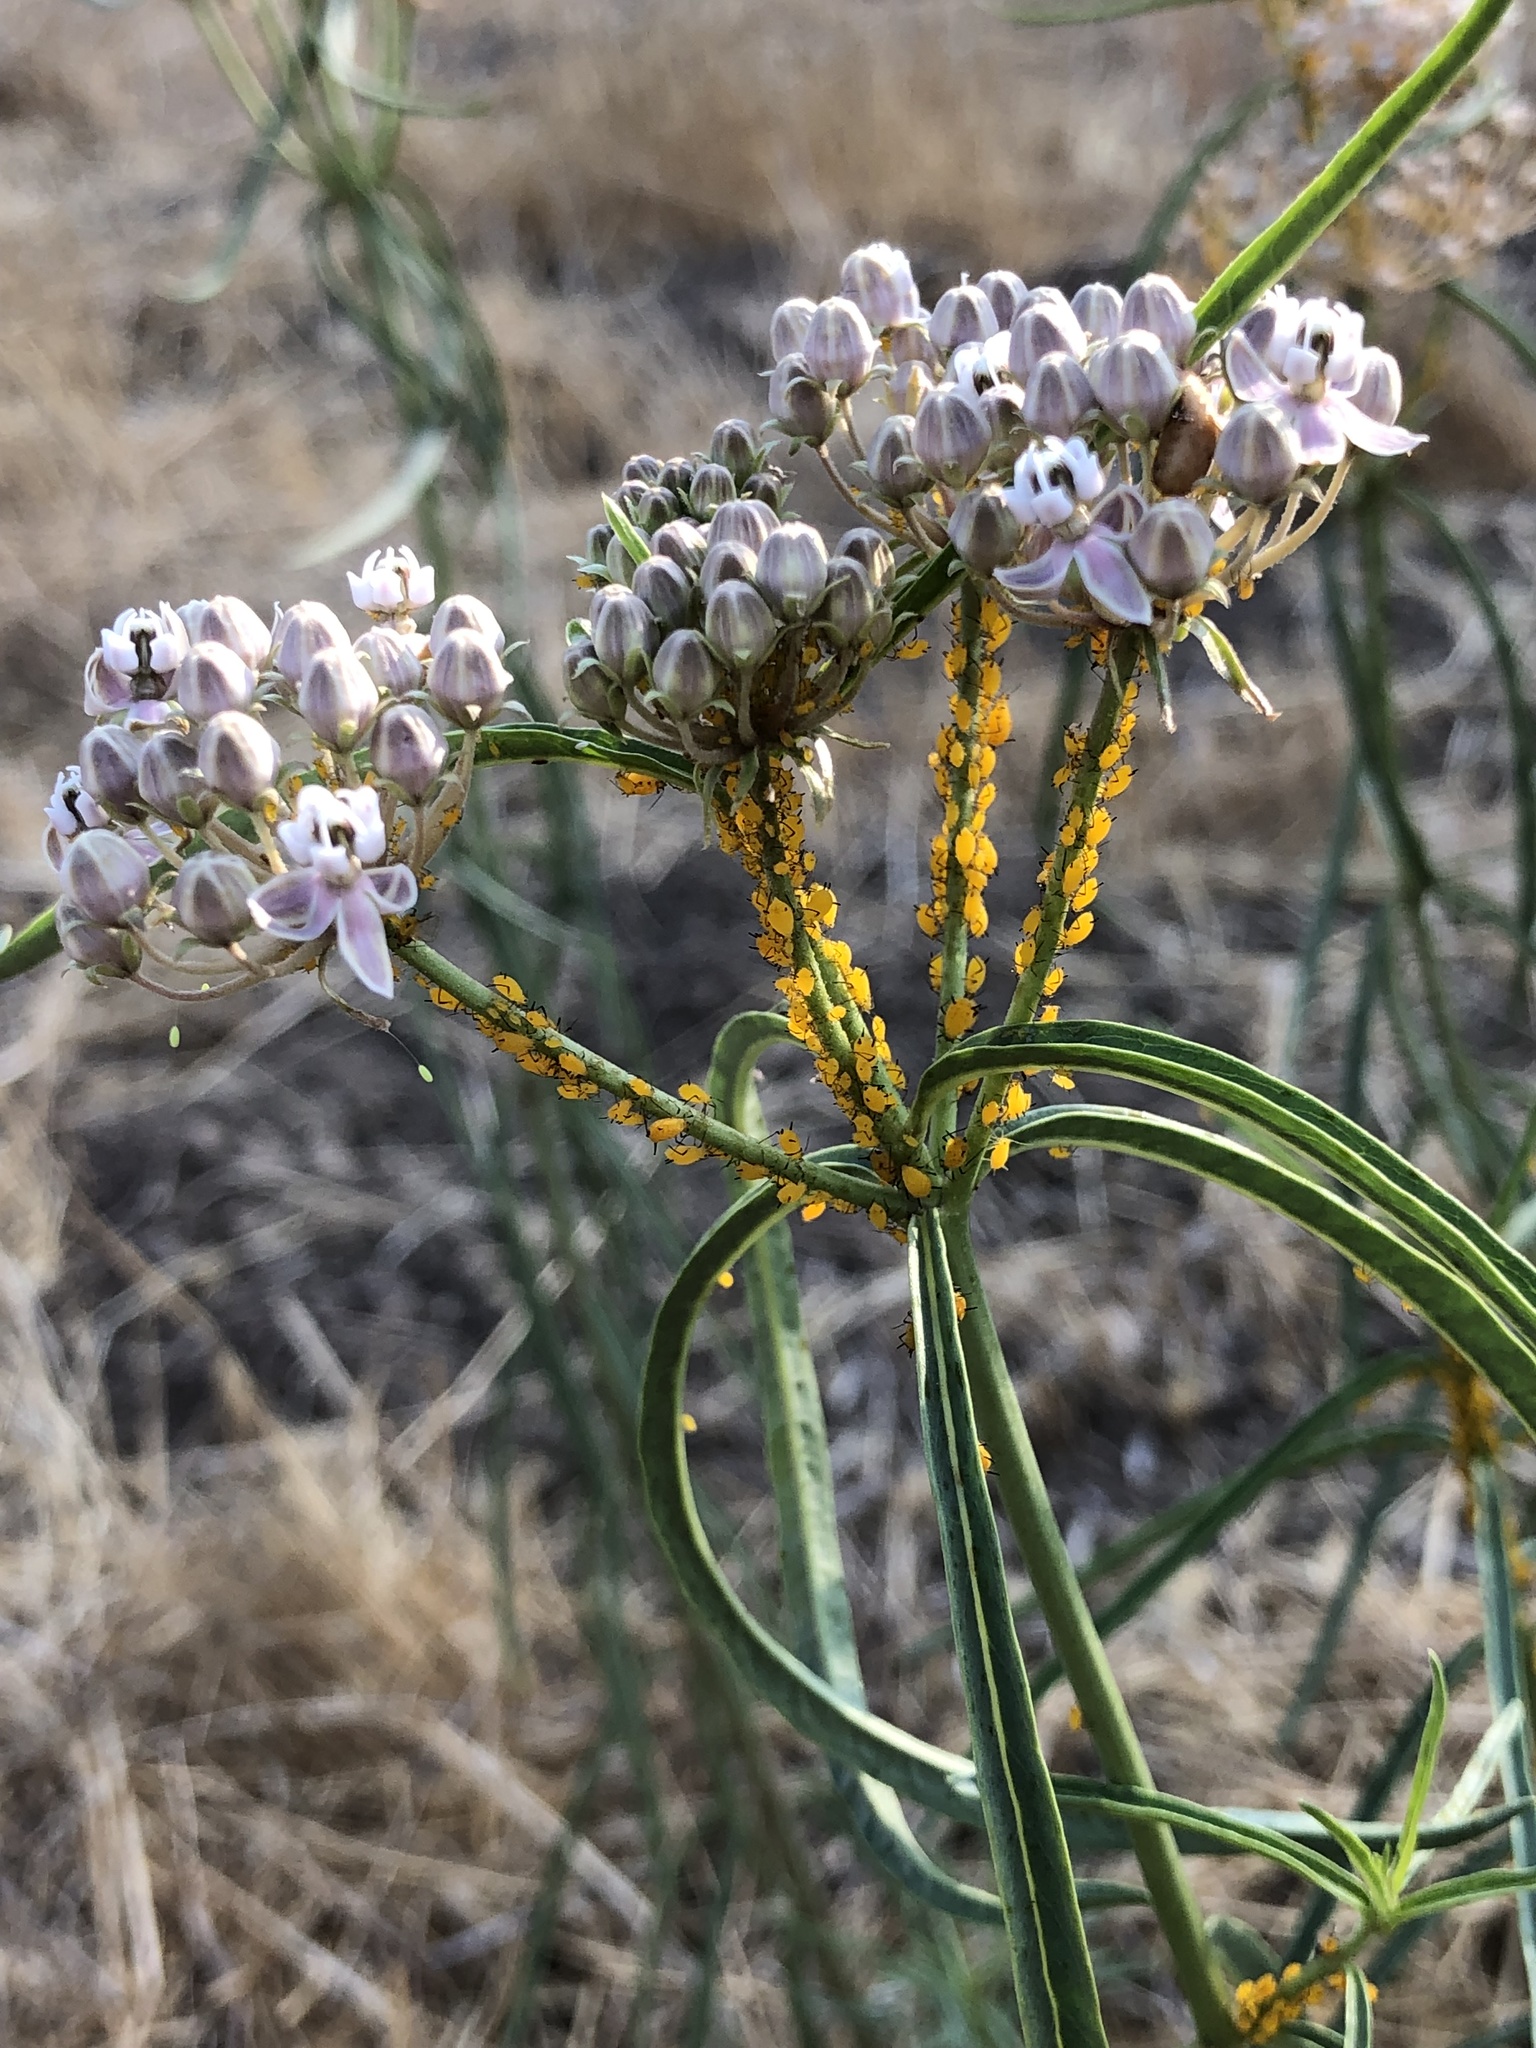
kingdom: Animalia
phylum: Arthropoda
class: Insecta
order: Hemiptera
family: Aphididae
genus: Aphis
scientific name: Aphis nerii
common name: Oleander aphid
